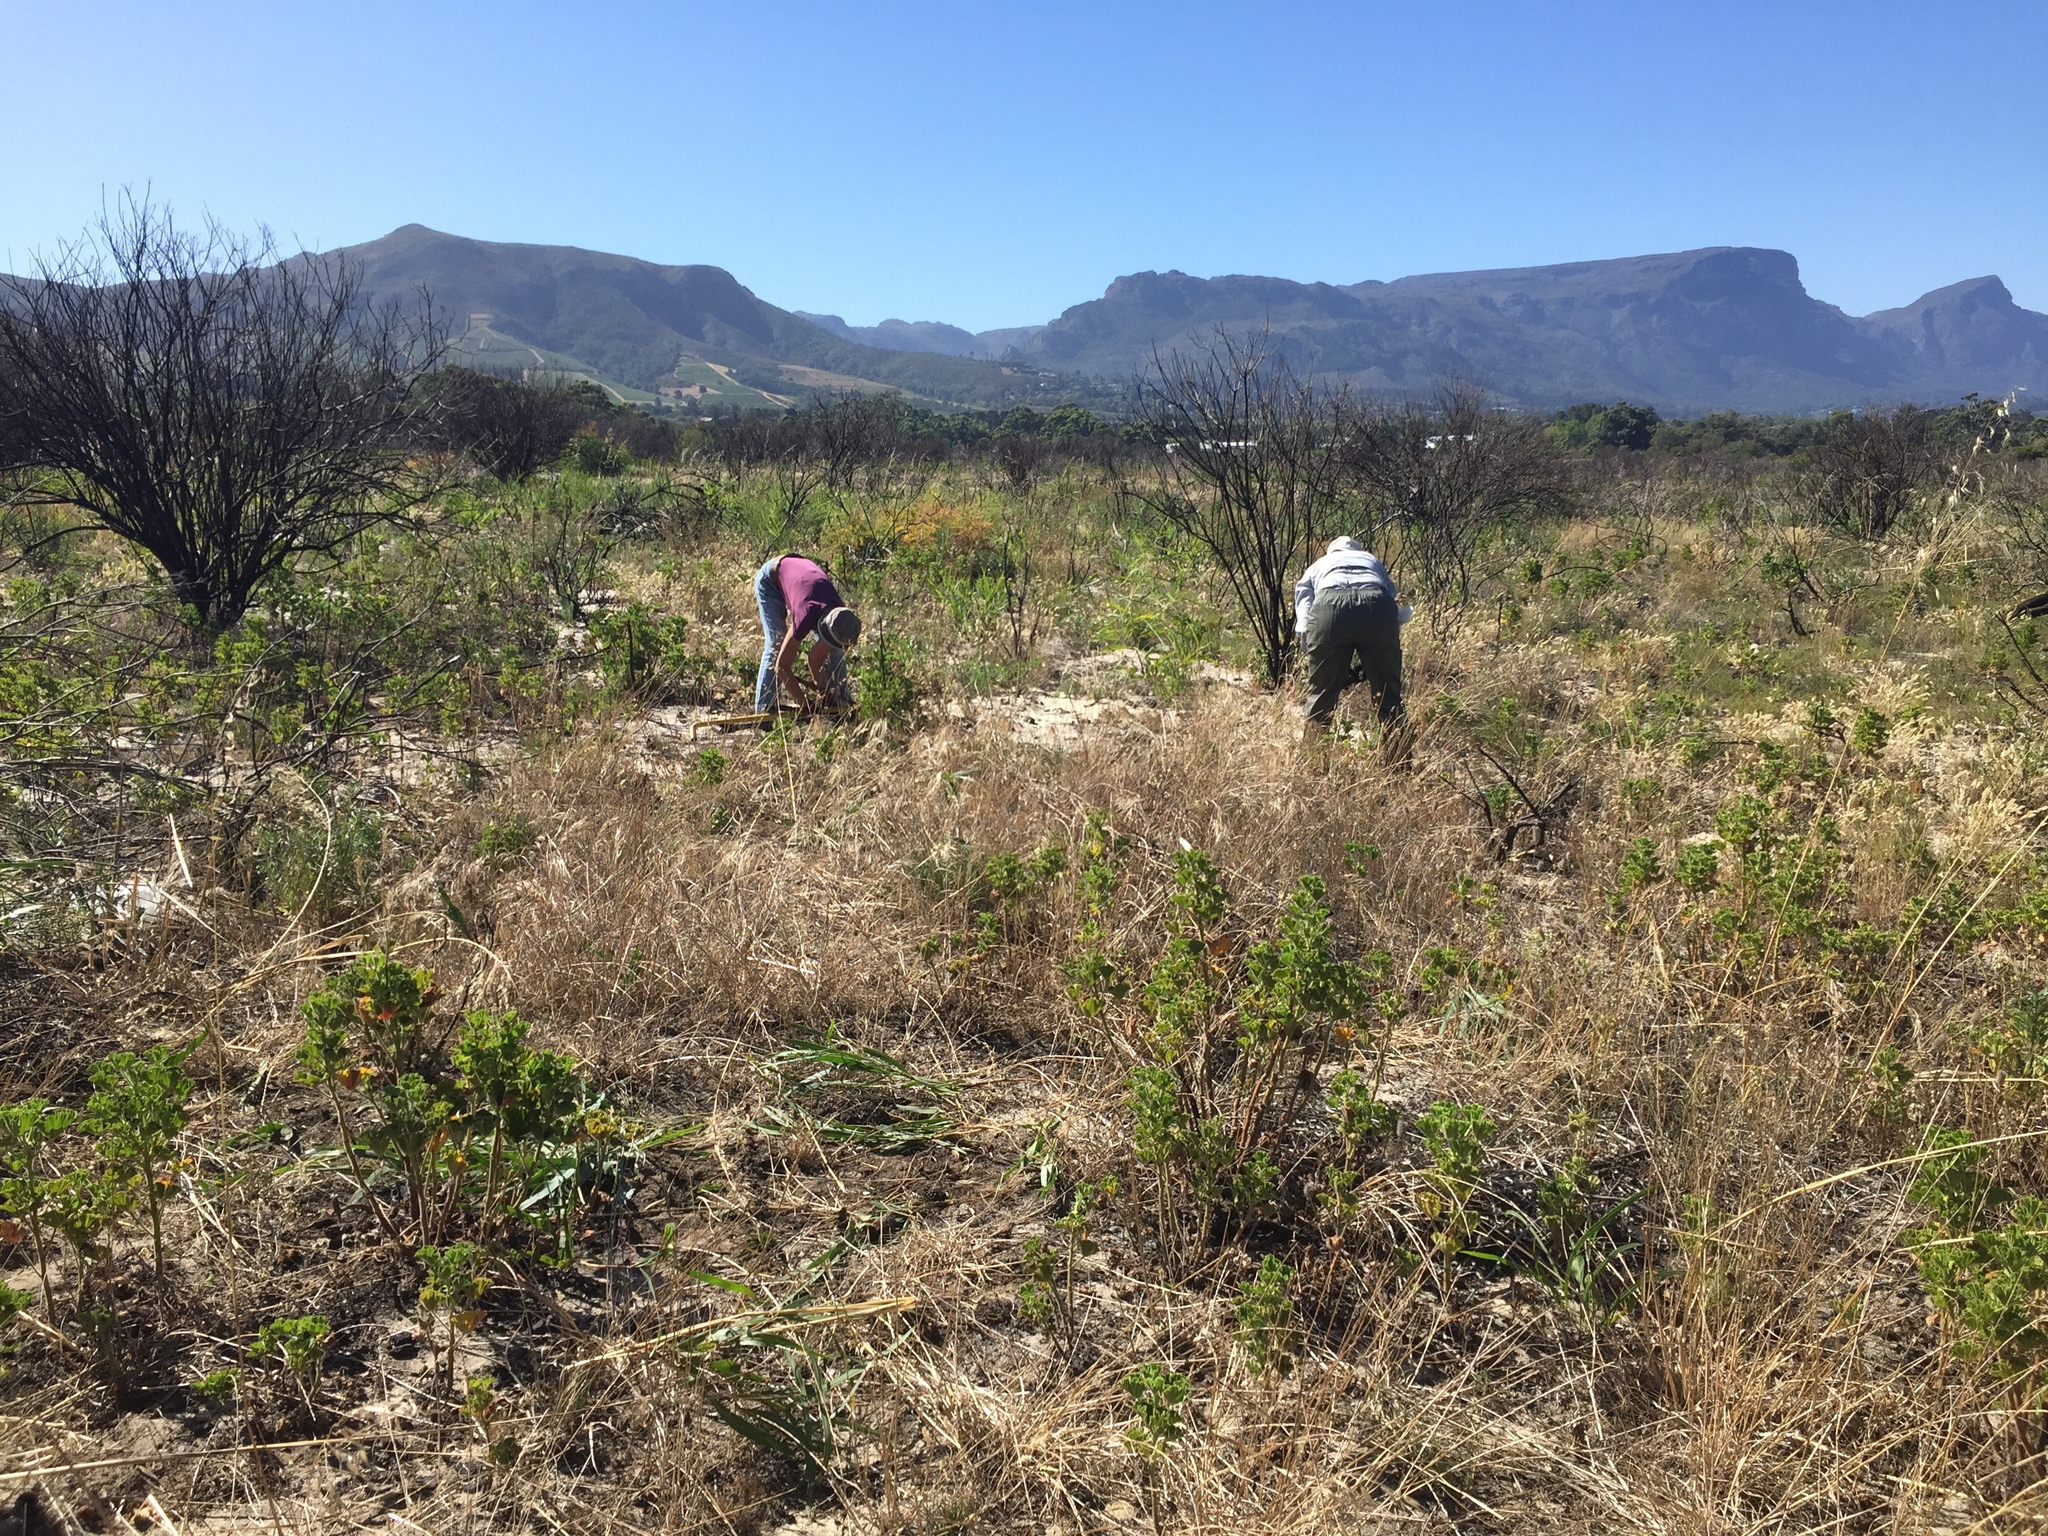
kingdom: Plantae
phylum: Tracheophyta
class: Magnoliopsida
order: Fabales
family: Fabaceae
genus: Acacia
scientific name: Acacia saligna
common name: Orange wattle
